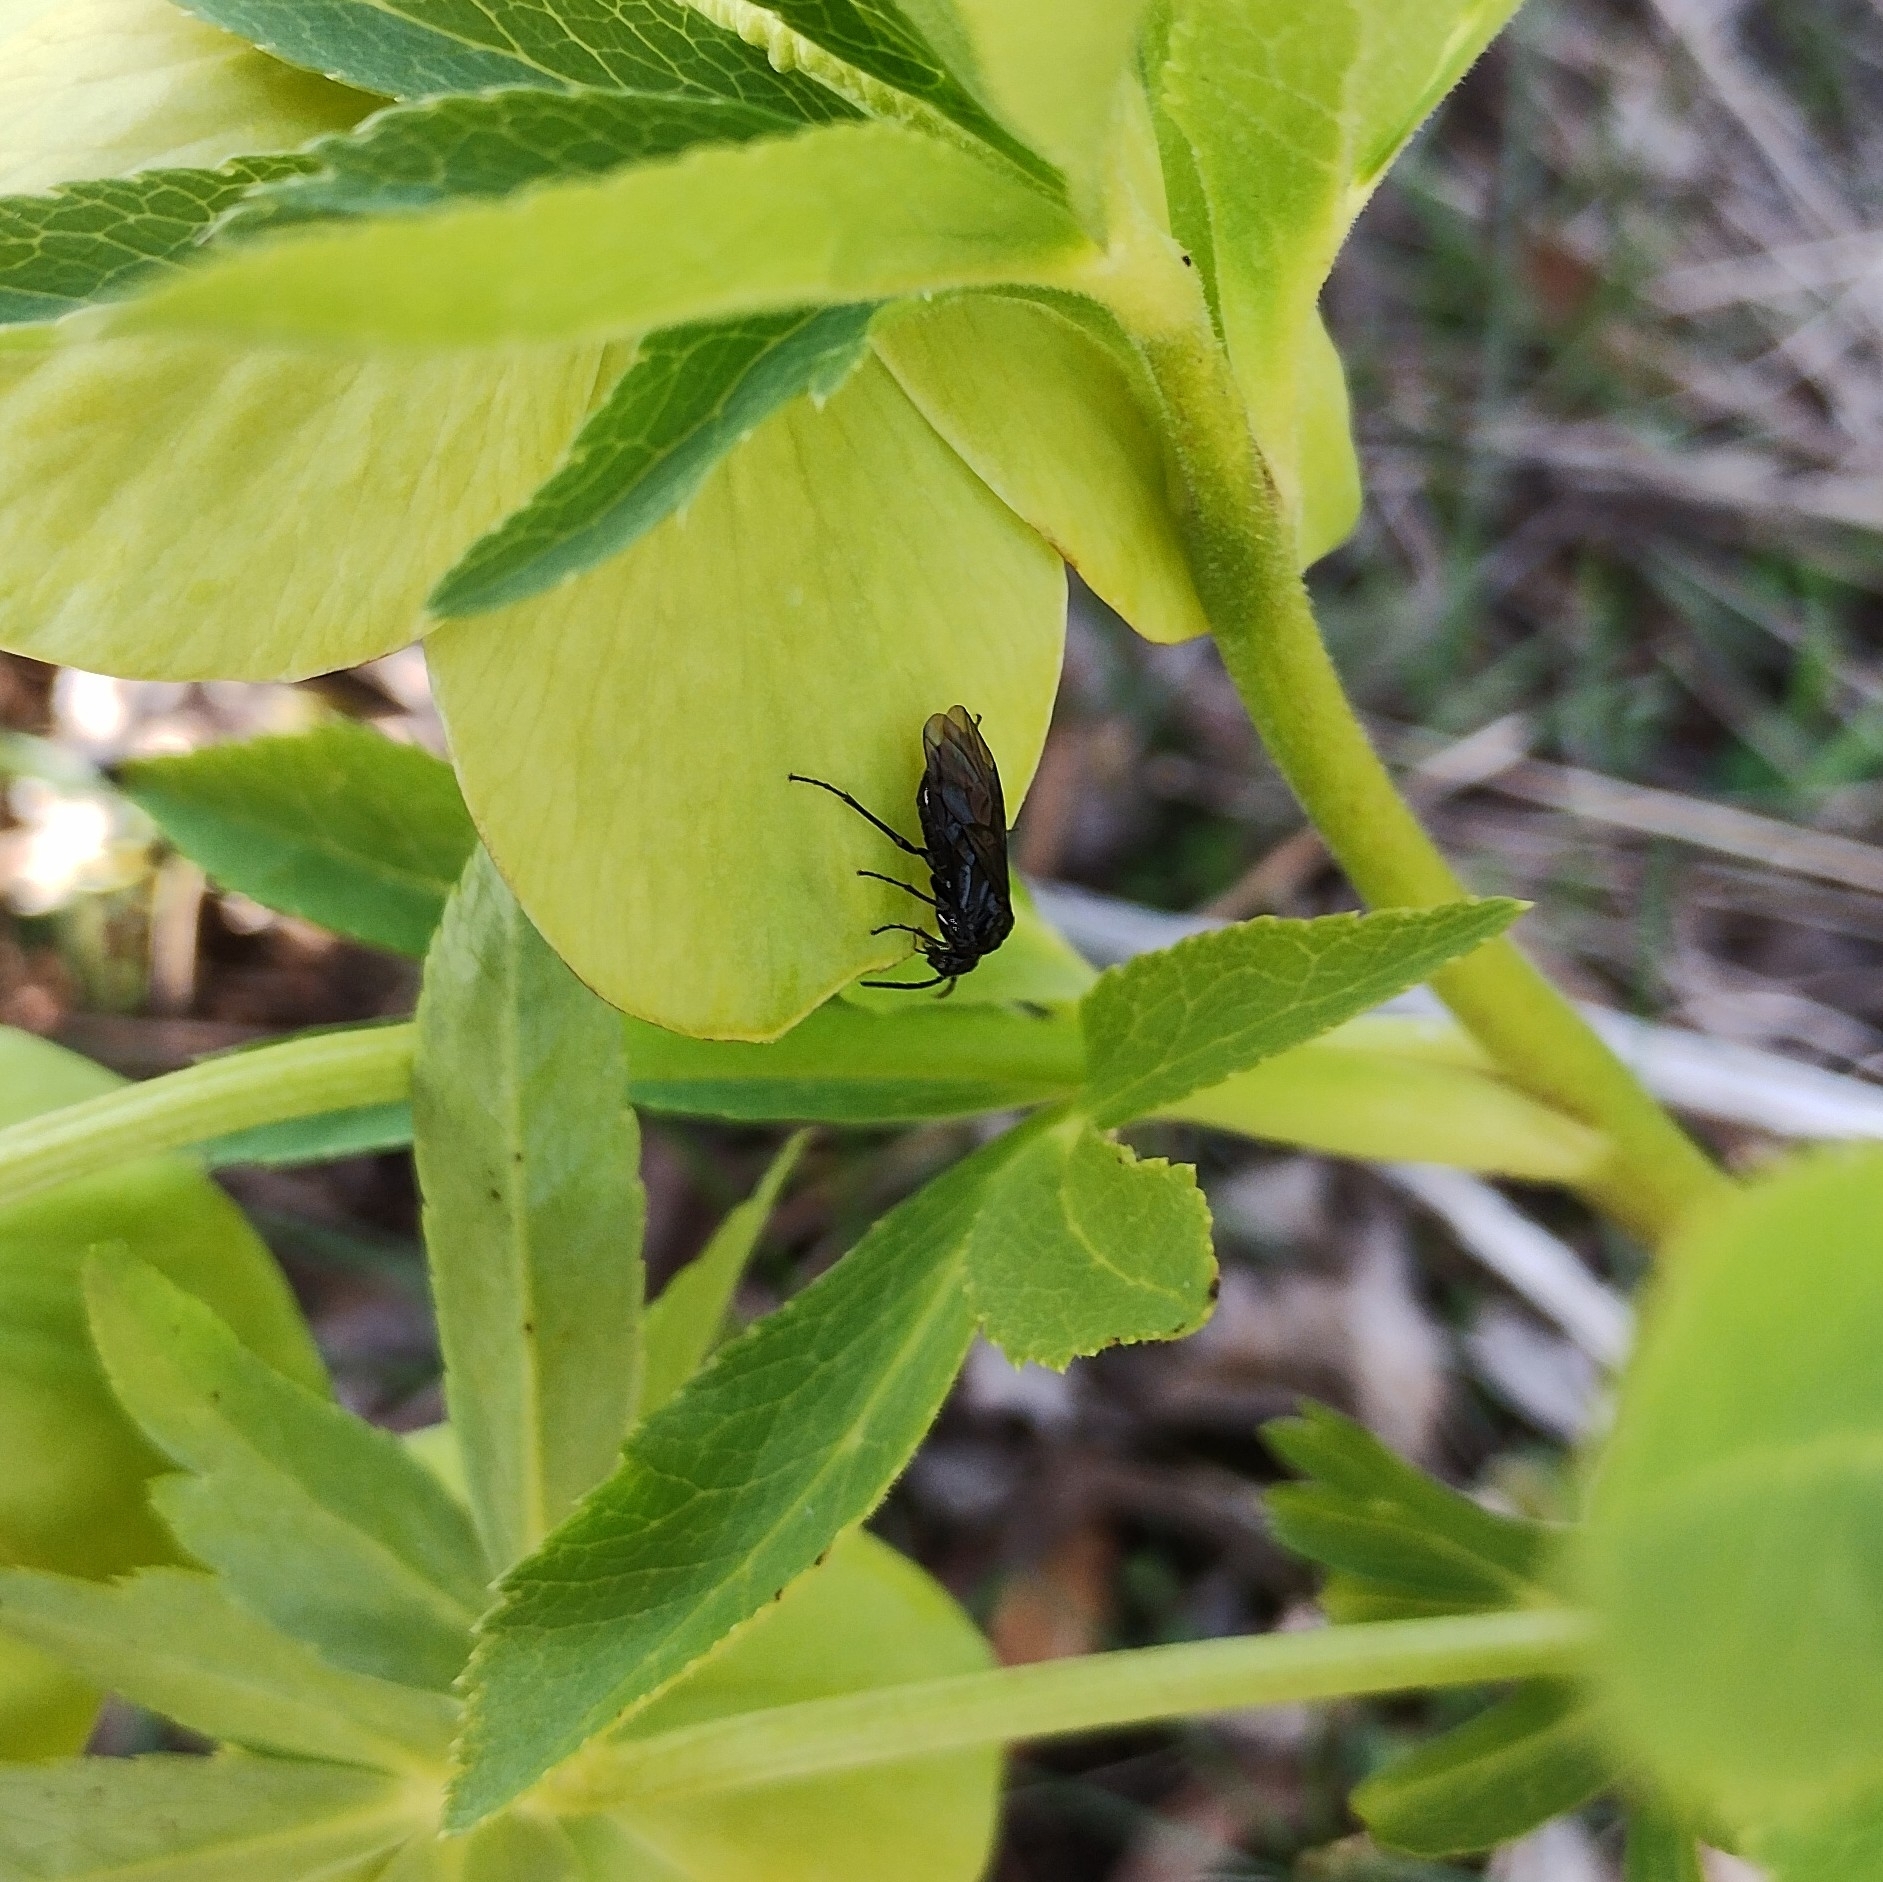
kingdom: Animalia
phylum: Arthropoda
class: Insecta
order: Hymenoptera
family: Tenthredinidae
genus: Monophadnus
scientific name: Monophadnus taegeri
